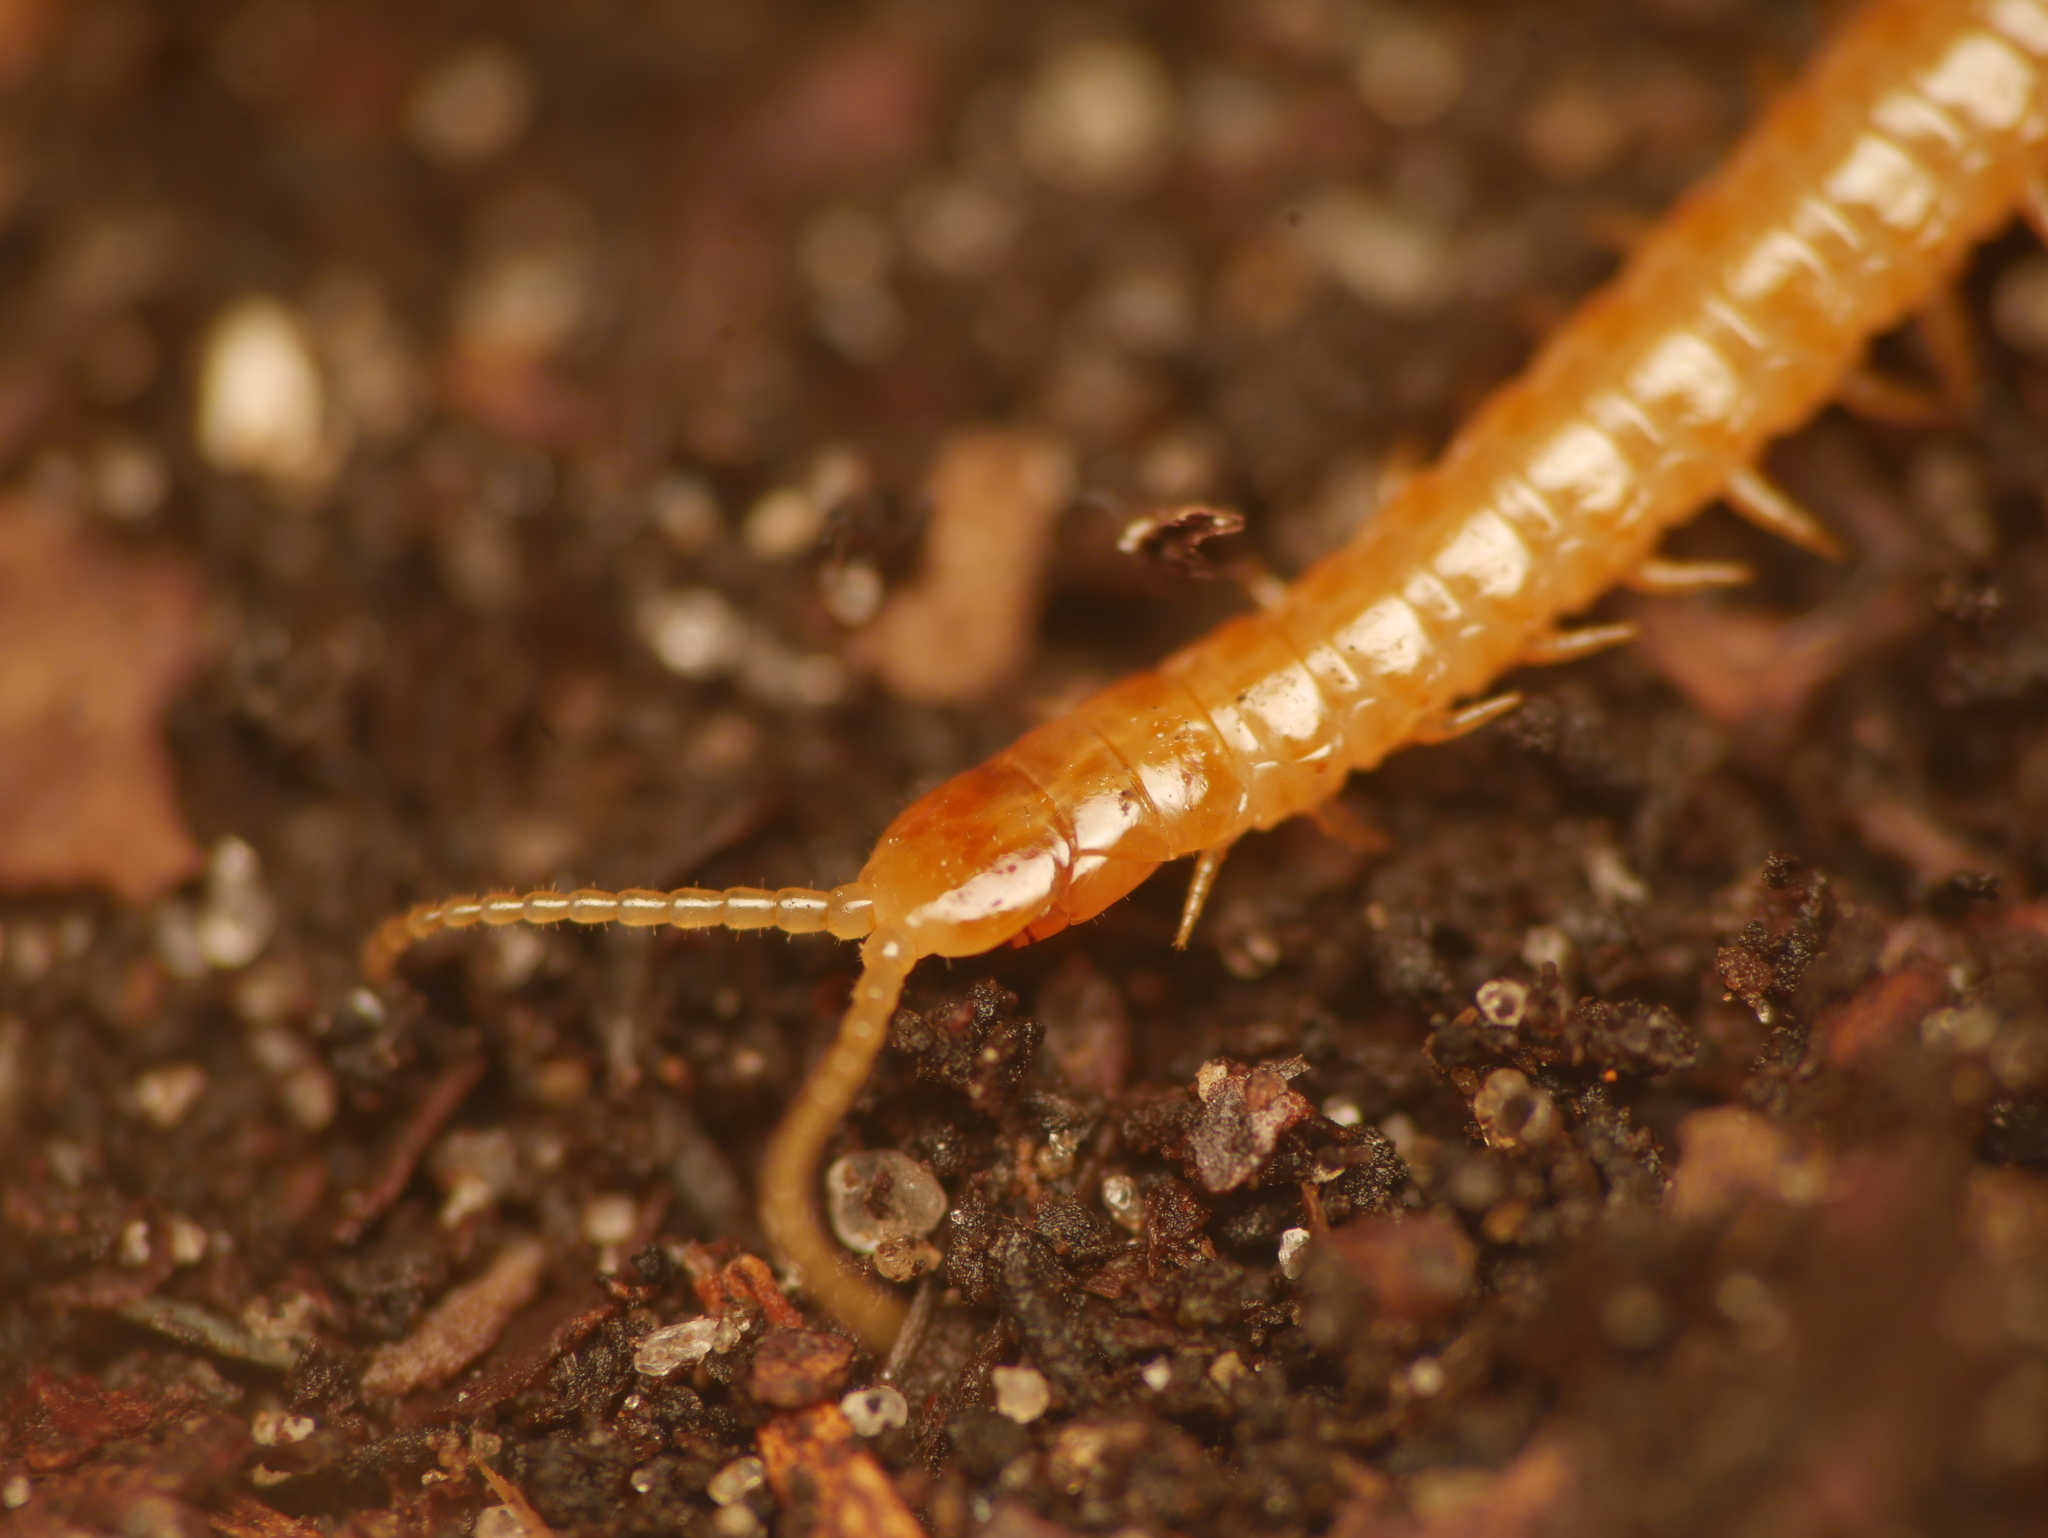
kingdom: Animalia
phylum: Arthropoda
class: Chilopoda
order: Geophilomorpha
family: Himantariidae
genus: Stigmatogaster
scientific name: Stigmatogaster subterranea
